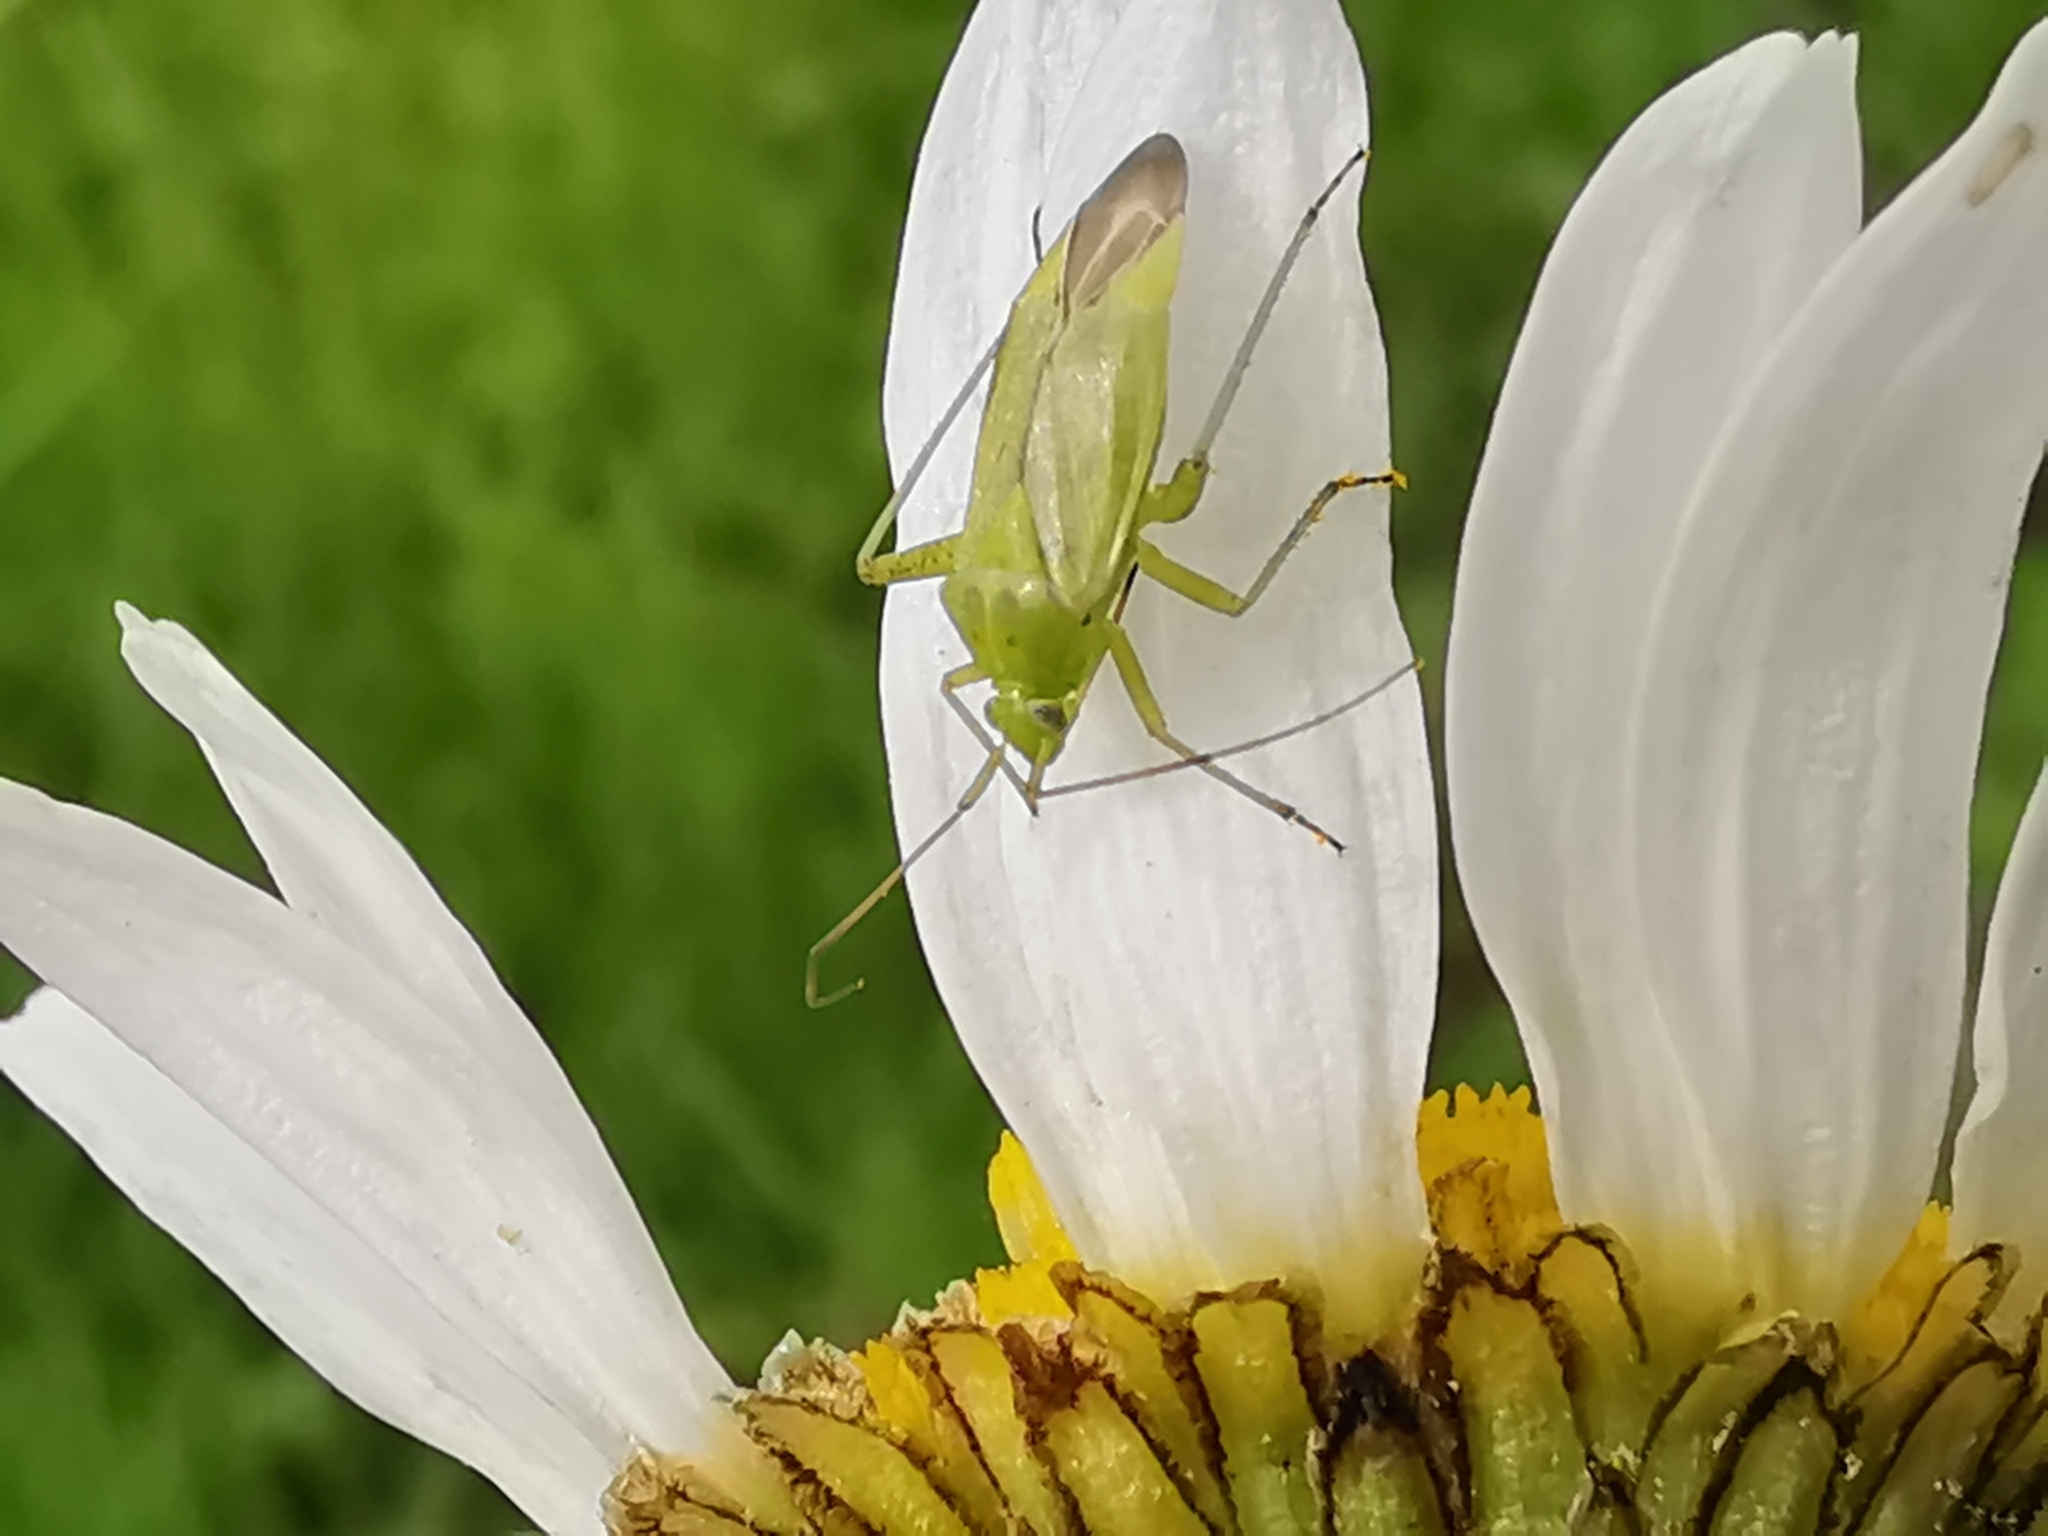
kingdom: Animalia
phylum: Arthropoda
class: Insecta
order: Hemiptera
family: Miridae
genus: Closterotomus
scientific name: Closterotomus norvegicus
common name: Plant bug
